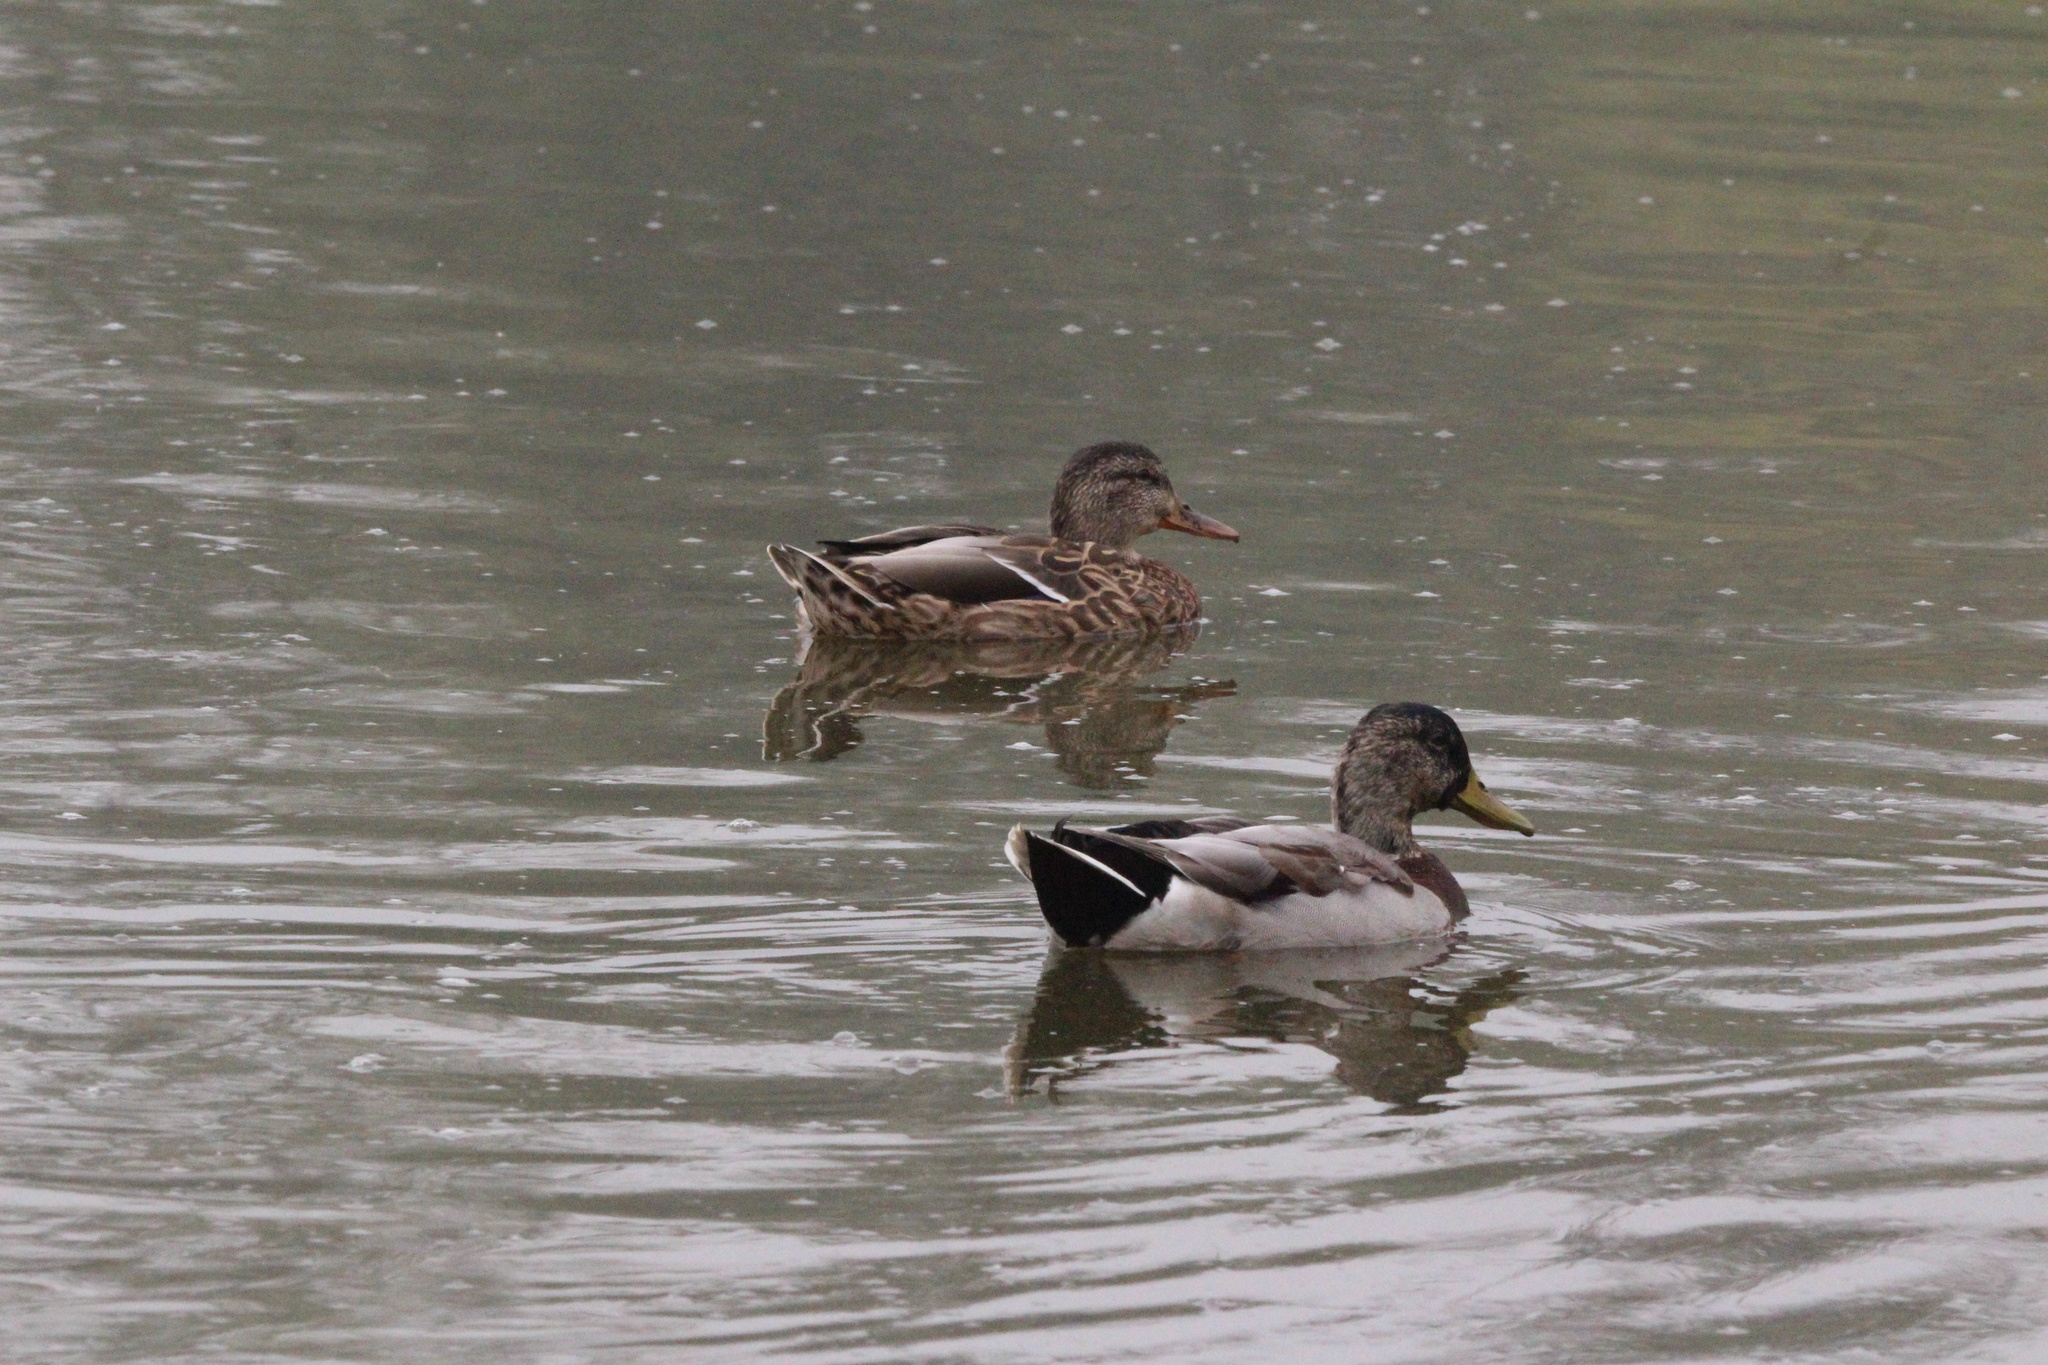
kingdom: Animalia
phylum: Chordata
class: Aves
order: Anseriformes
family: Anatidae
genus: Anas
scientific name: Anas platyrhynchos
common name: Mallard
